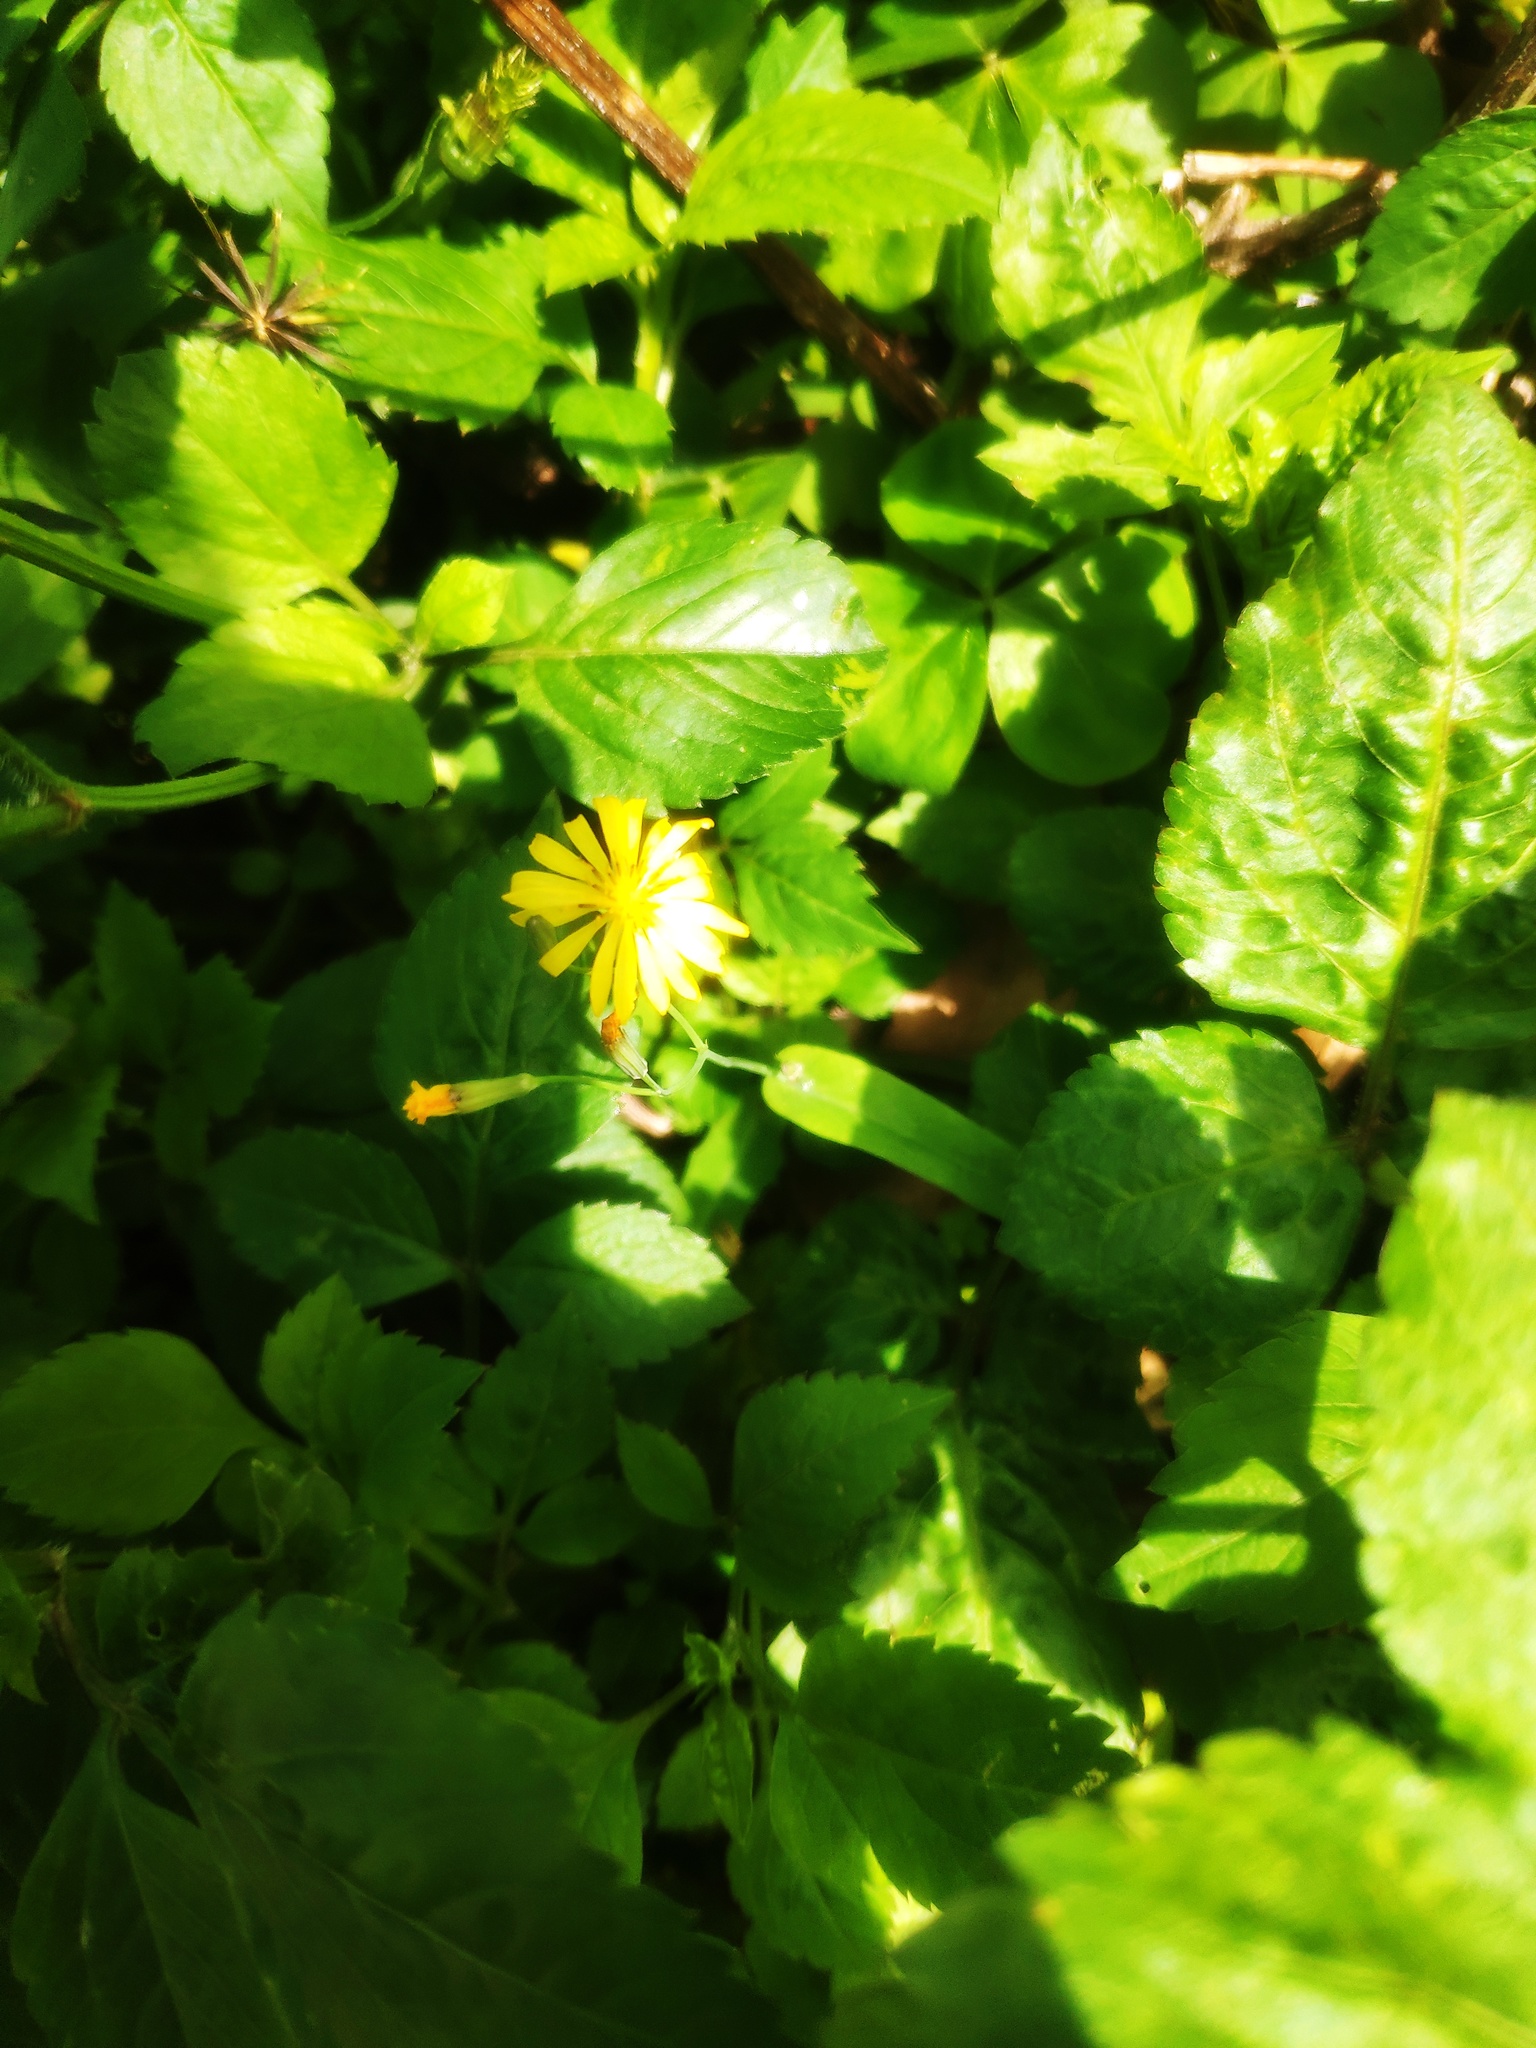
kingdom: Plantae
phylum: Tracheophyta
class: Magnoliopsida
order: Asterales
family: Asteraceae
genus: Youngia
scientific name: Youngia japonica
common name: Oriental false hawksbeard
